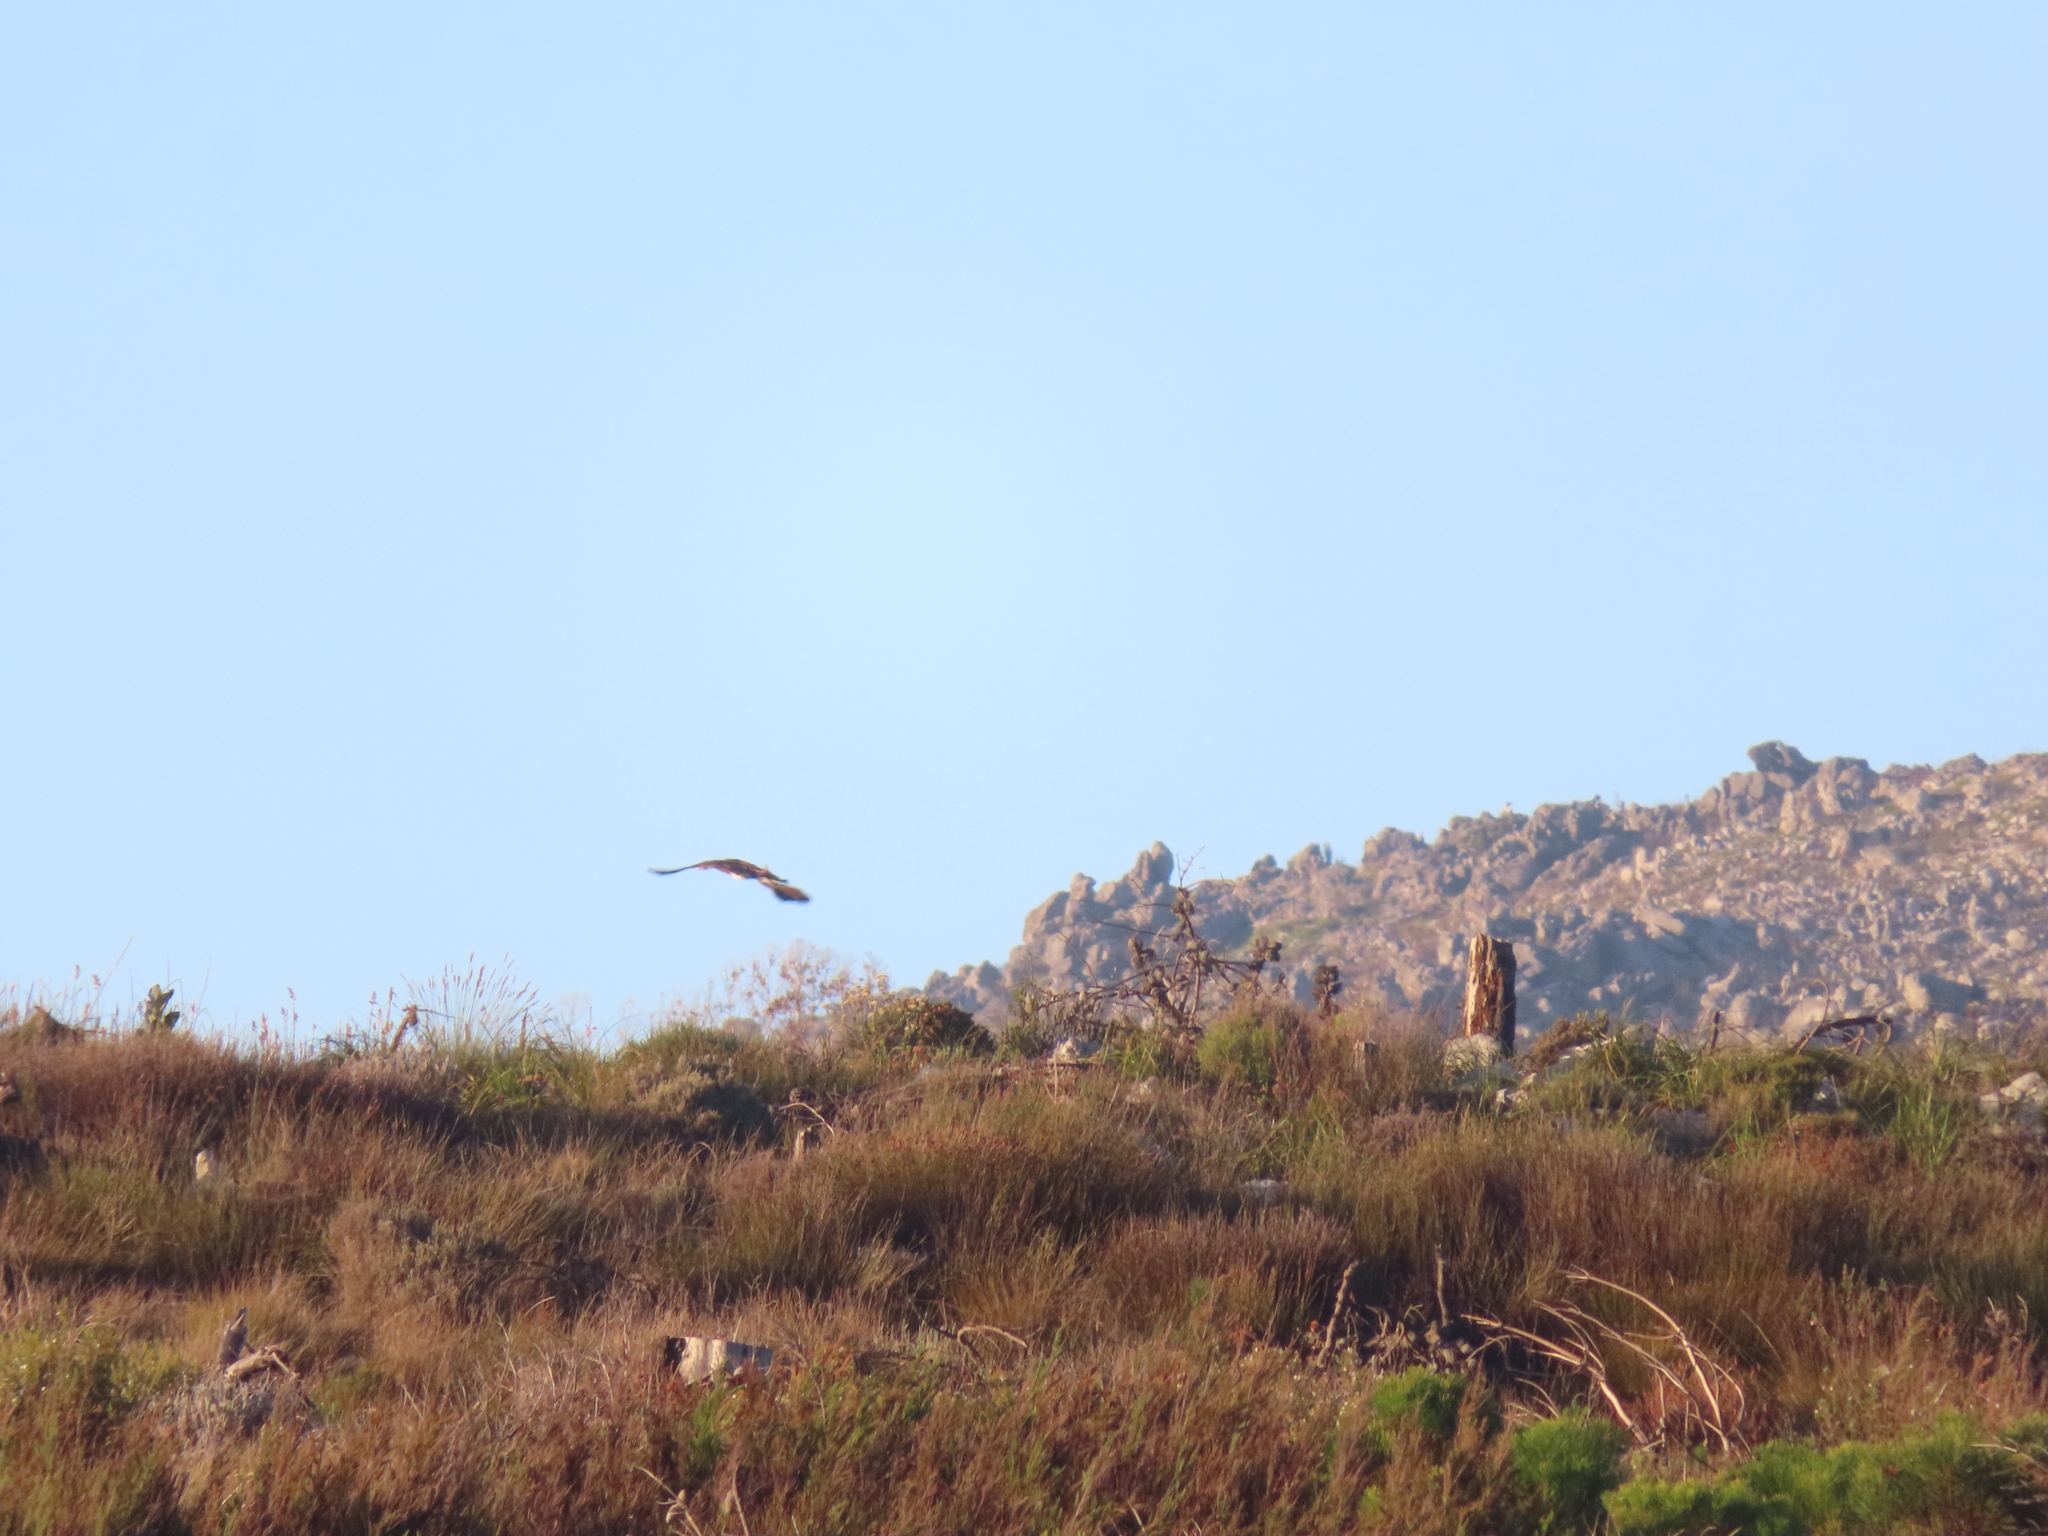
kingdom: Animalia
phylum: Chordata
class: Aves
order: Anseriformes
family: Anatidae
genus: Plectropterus
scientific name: Plectropterus gambensis
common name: Spur-winged goose
